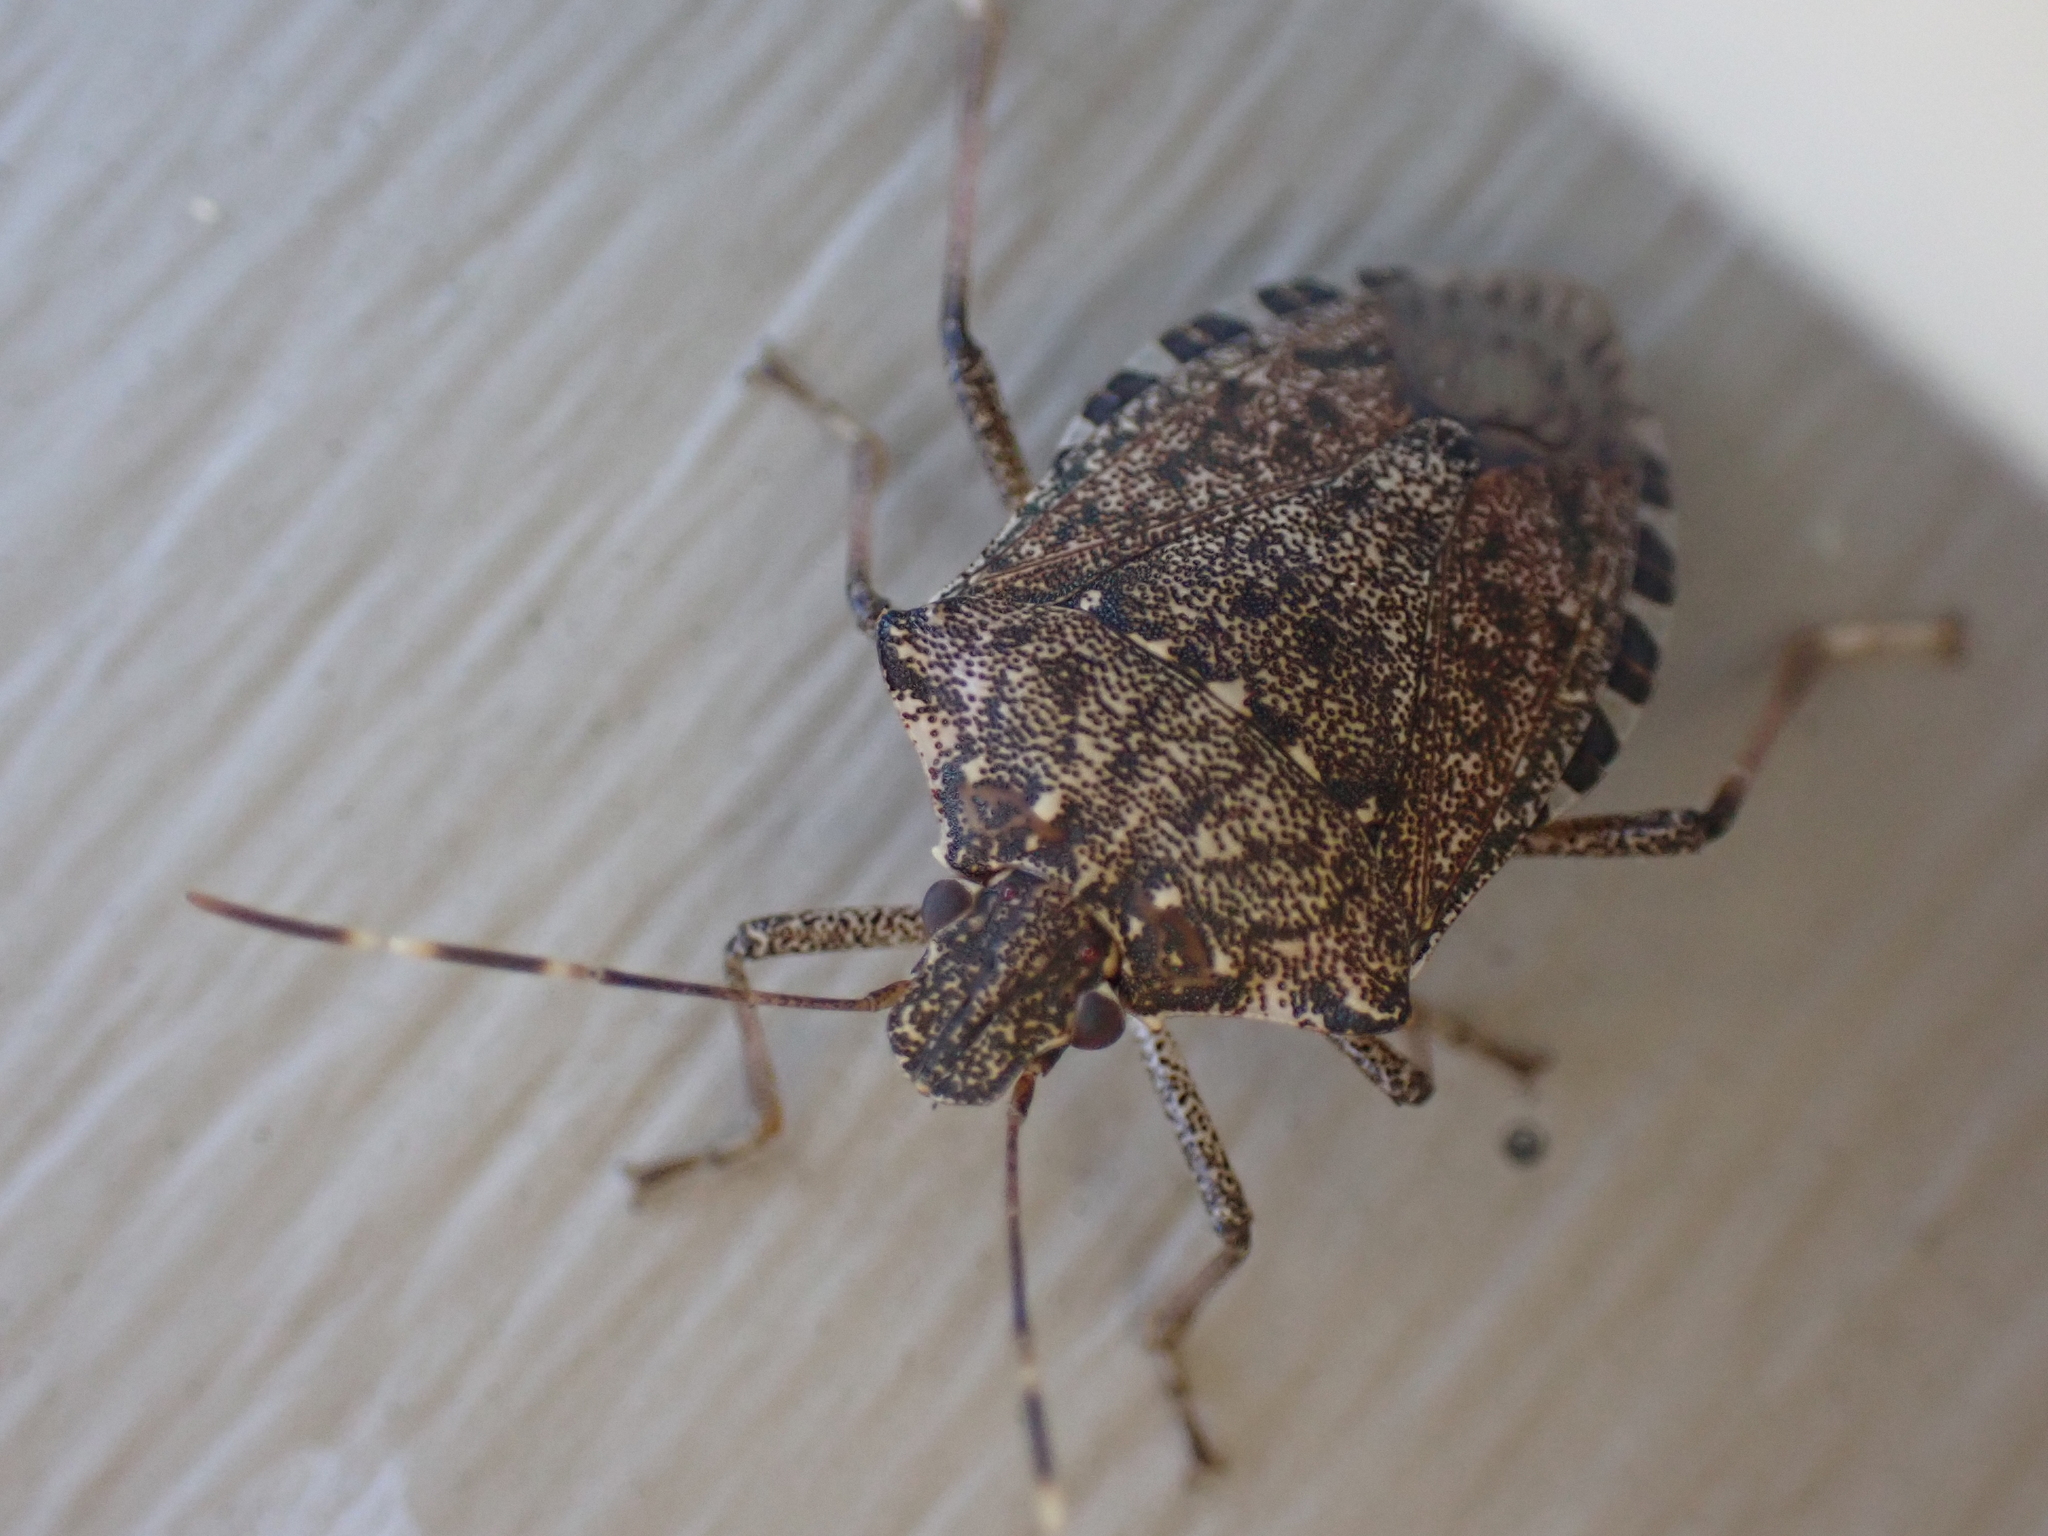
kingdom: Animalia
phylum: Arthropoda
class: Insecta
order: Hemiptera
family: Pentatomidae
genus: Halyomorpha
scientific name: Halyomorpha halys
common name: Brown marmorated stink bug
